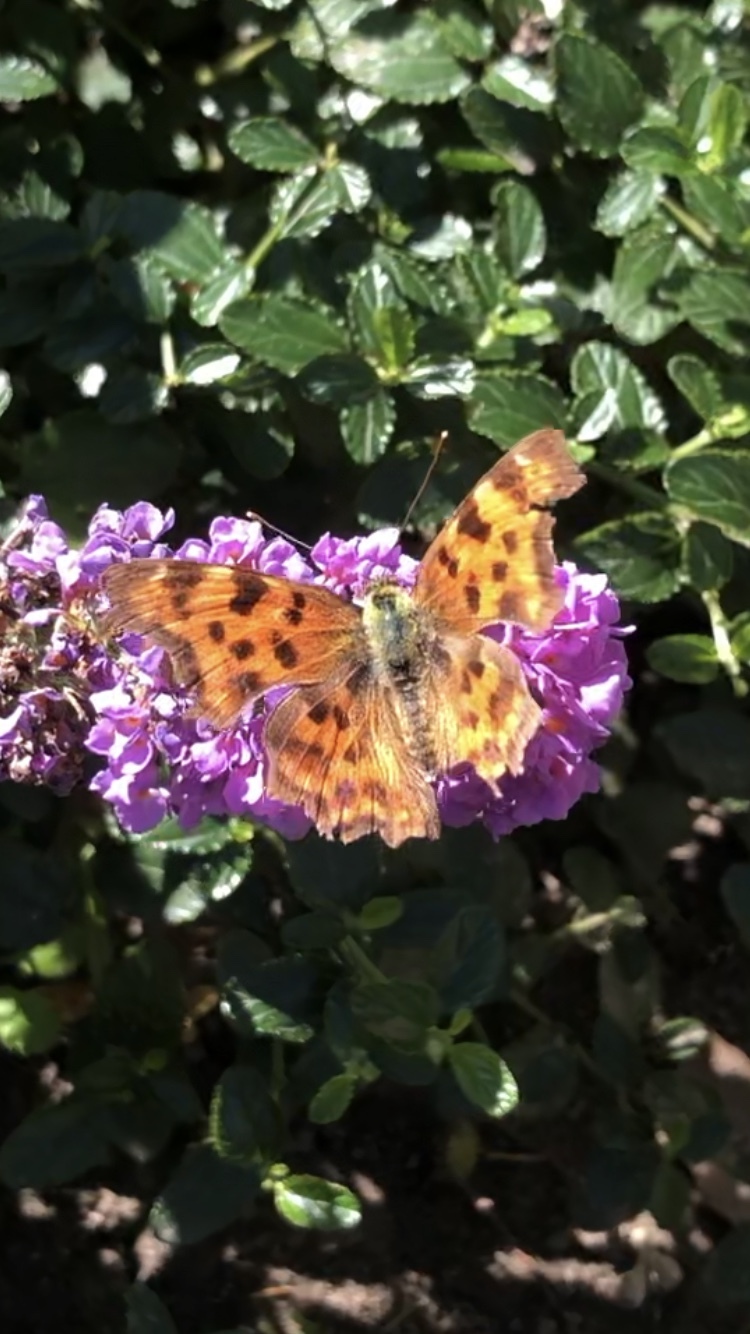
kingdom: Animalia
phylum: Arthropoda
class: Insecta
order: Lepidoptera
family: Nymphalidae
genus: Polygonia
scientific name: Polygonia c-album
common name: Comma
